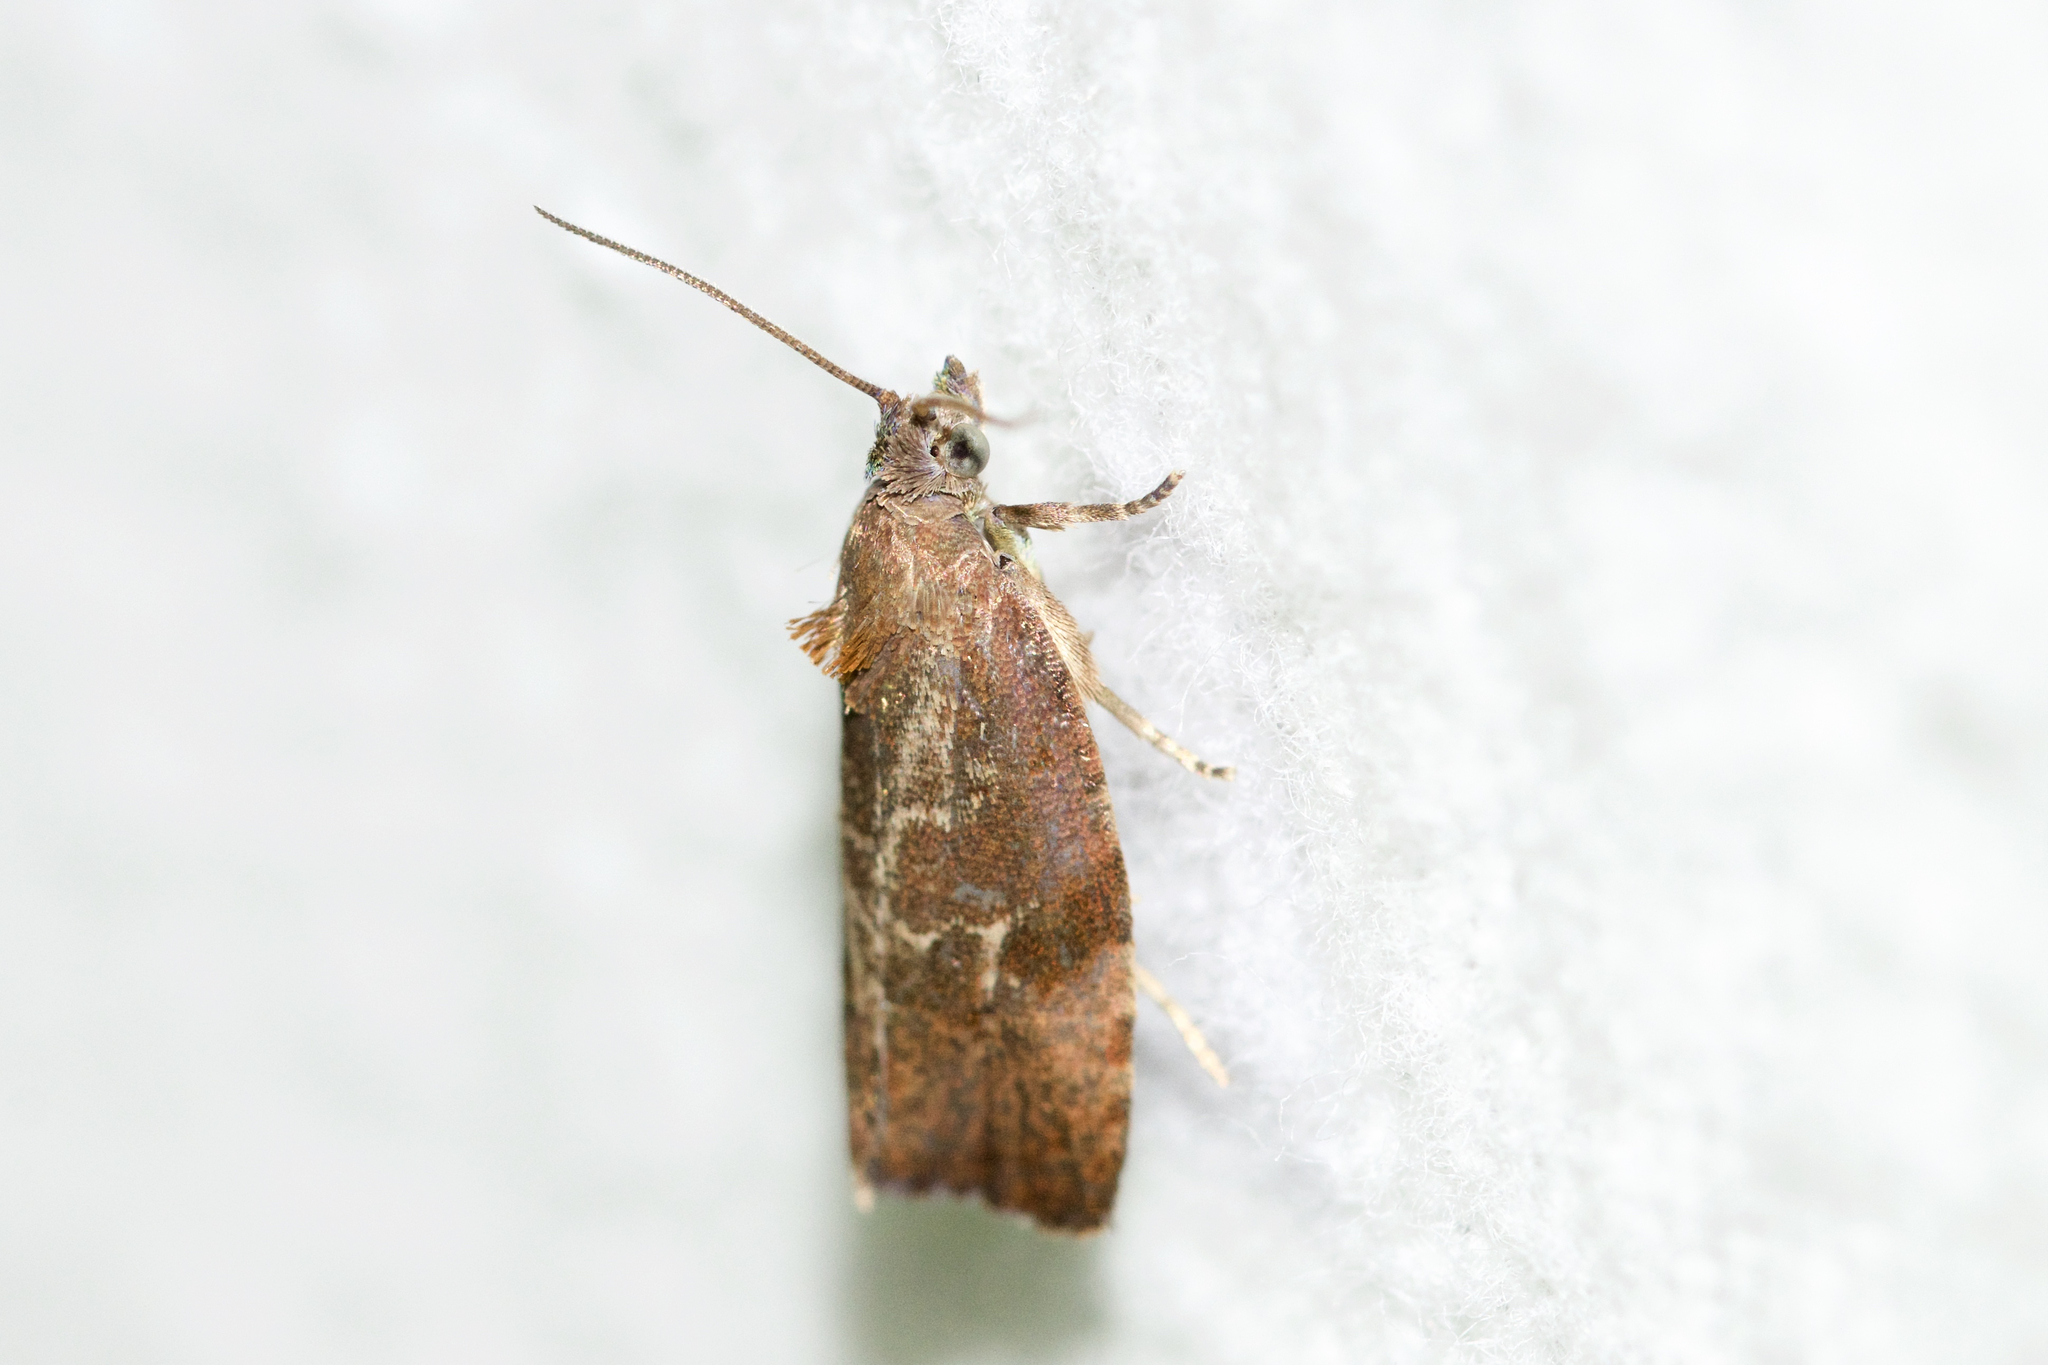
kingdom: Animalia
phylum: Arthropoda
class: Insecta
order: Lepidoptera
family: Tortricidae
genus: Evora
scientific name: Evora hemidesma
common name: Spirea leaftier moth
